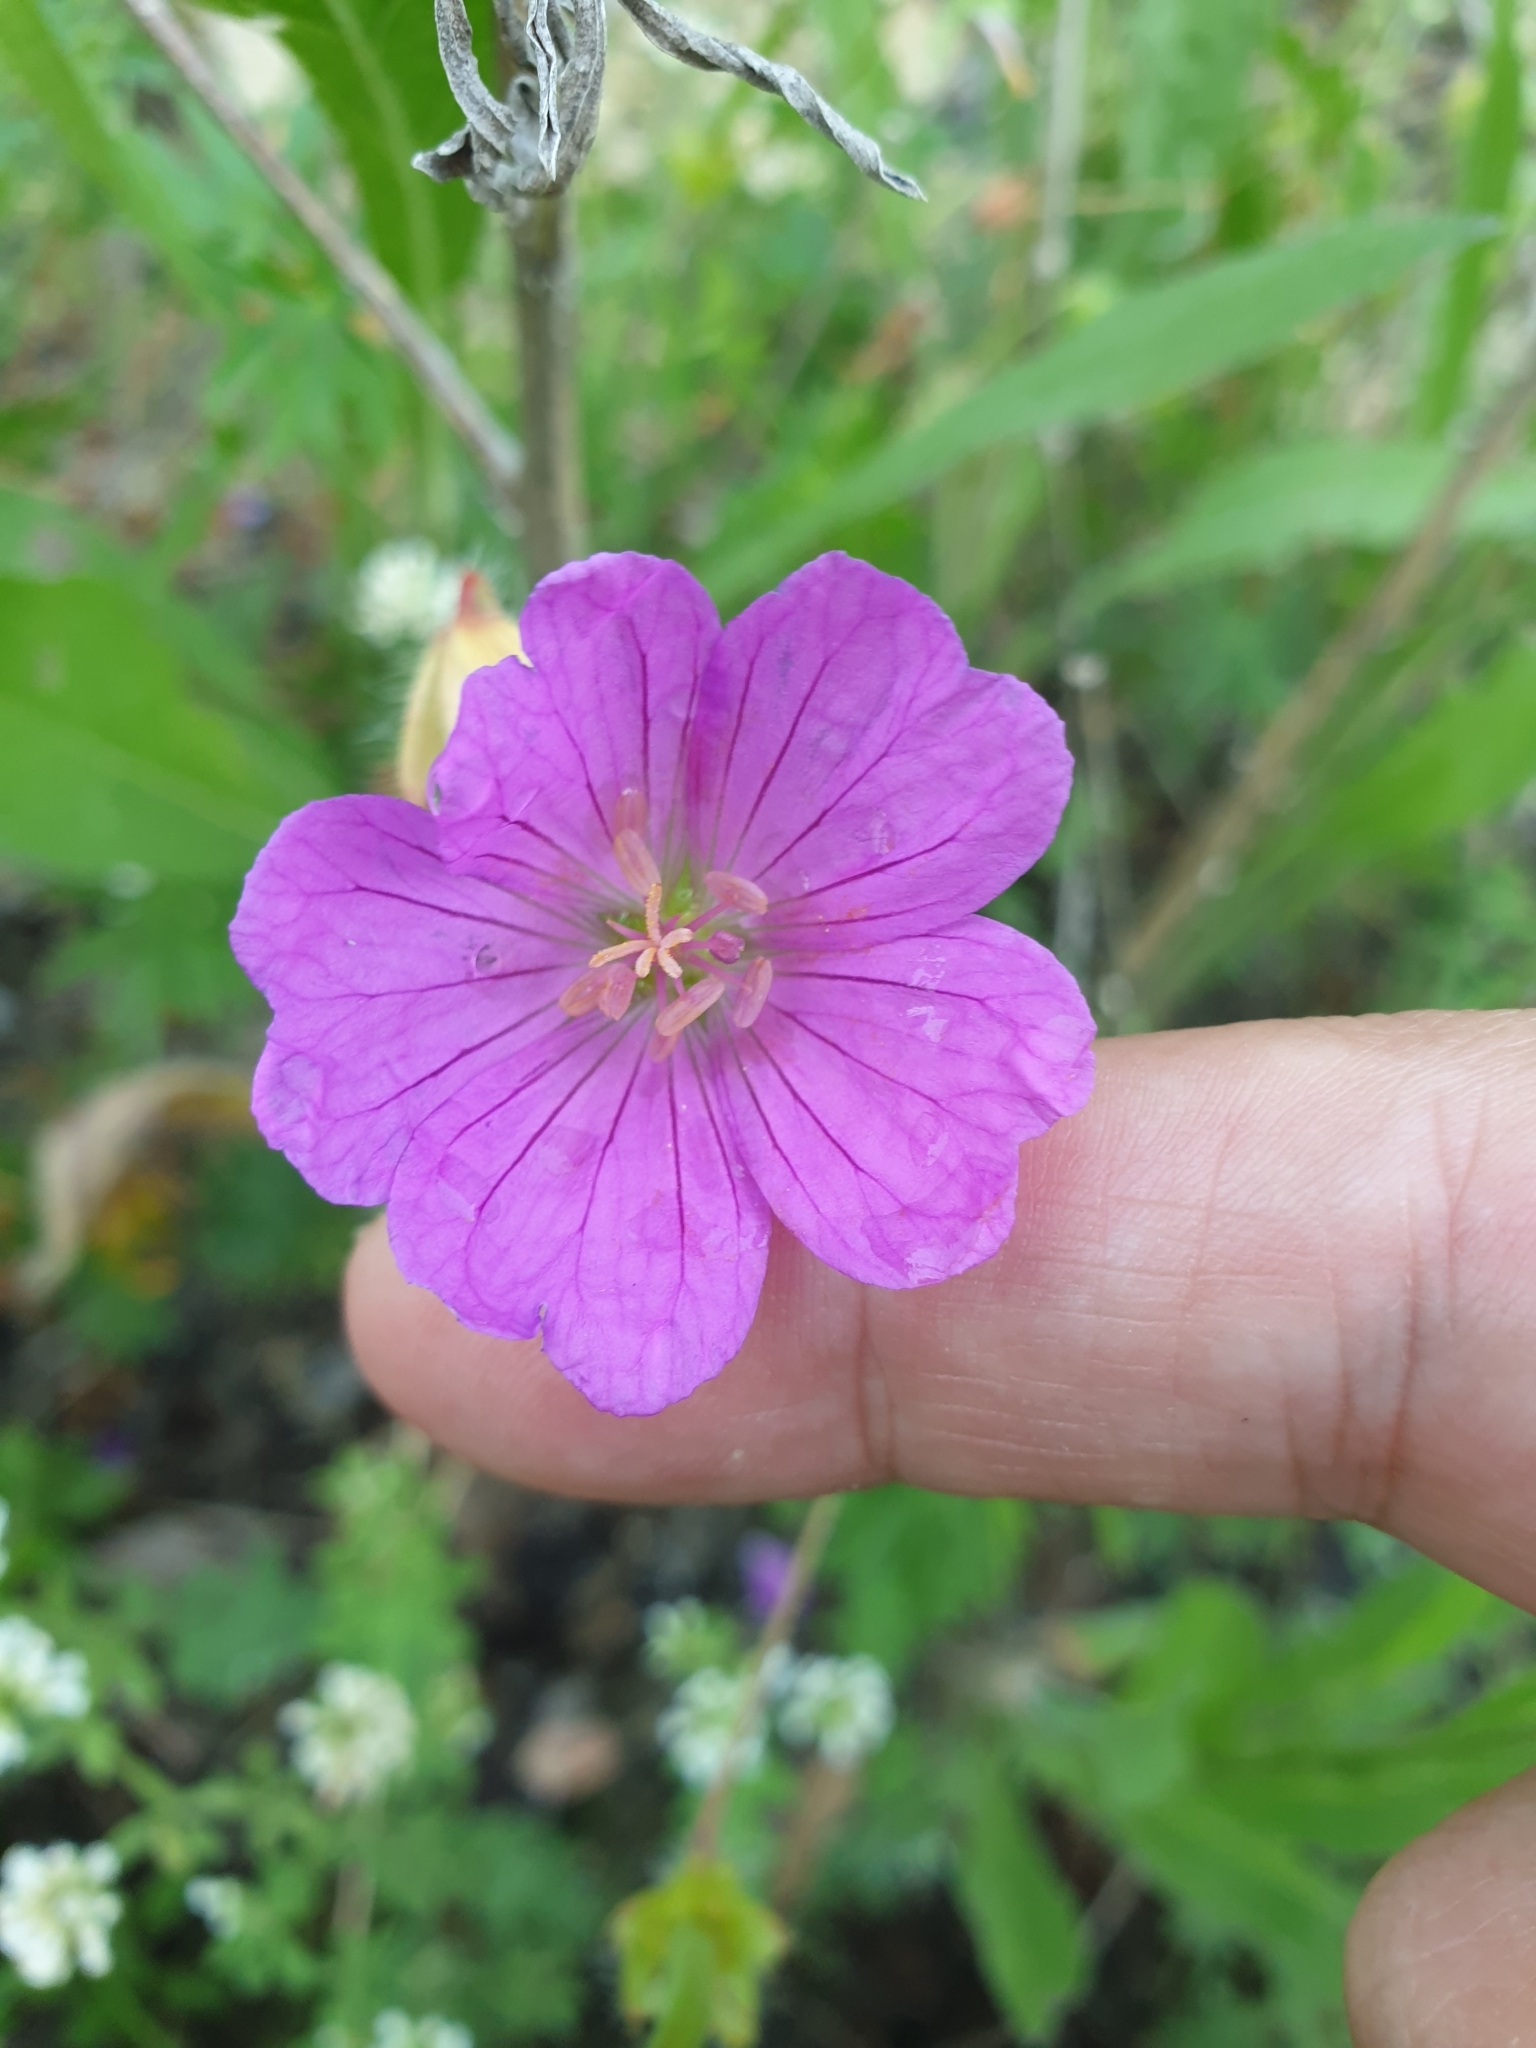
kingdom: Plantae
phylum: Tracheophyta
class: Magnoliopsida
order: Geraniales
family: Geraniaceae
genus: Geranium
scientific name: Geranium sanguineum
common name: Bloody crane's-bill
